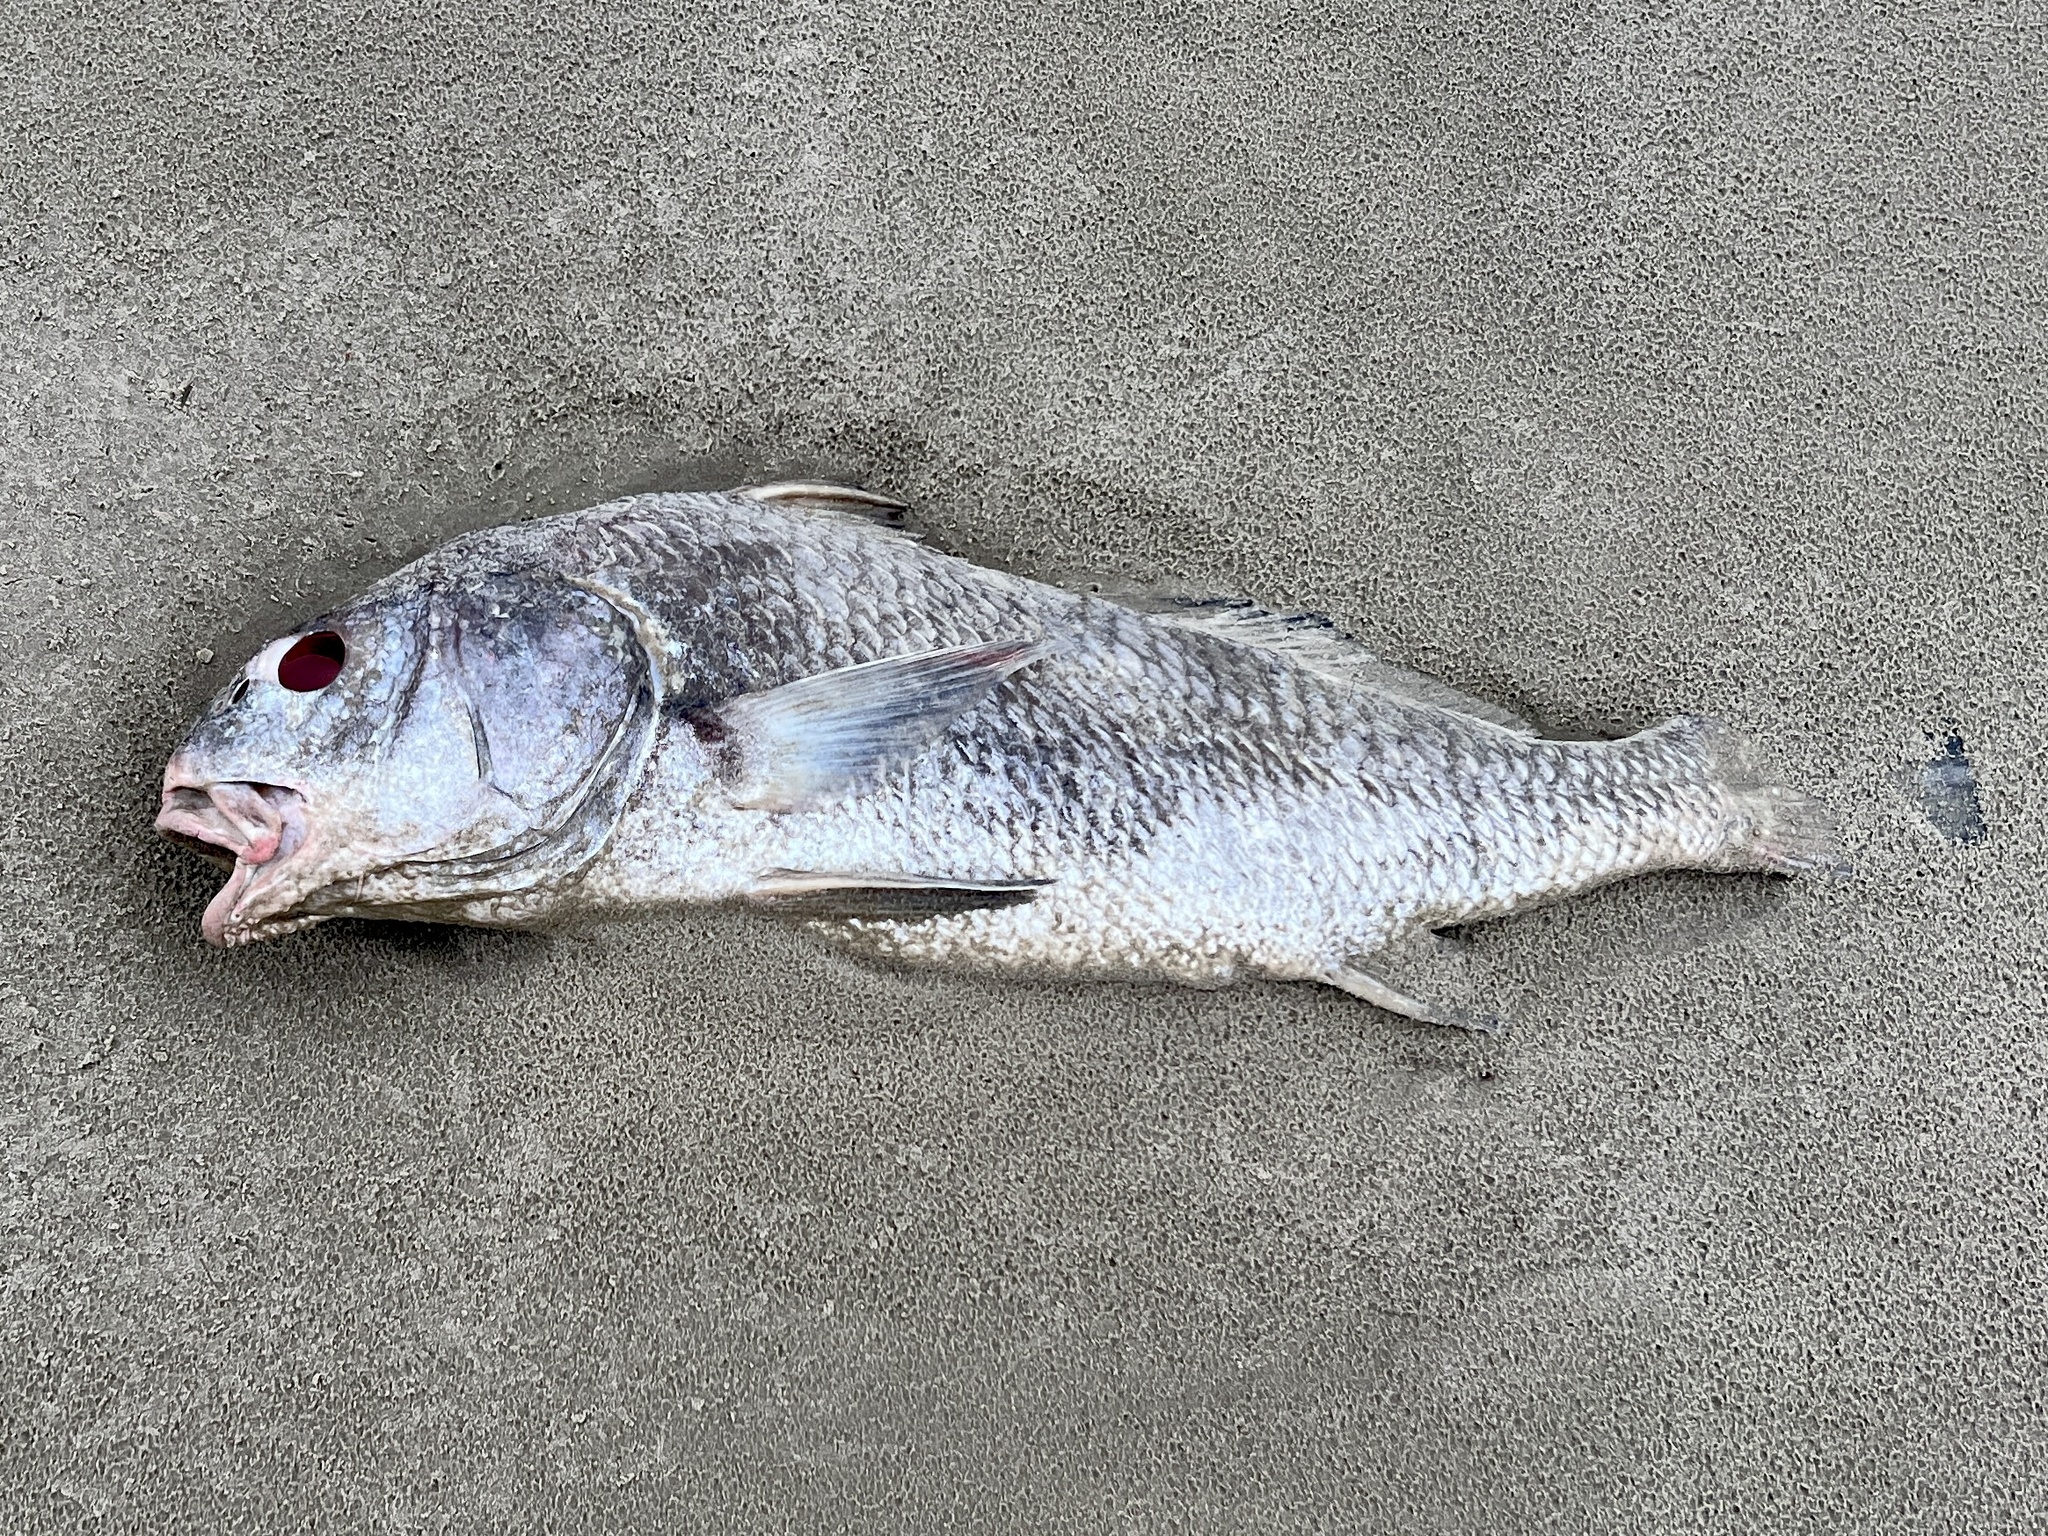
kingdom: Animalia
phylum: Chordata
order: Perciformes
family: Sciaenidae
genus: Pogonias
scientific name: Pogonias cromis
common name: Black drum
